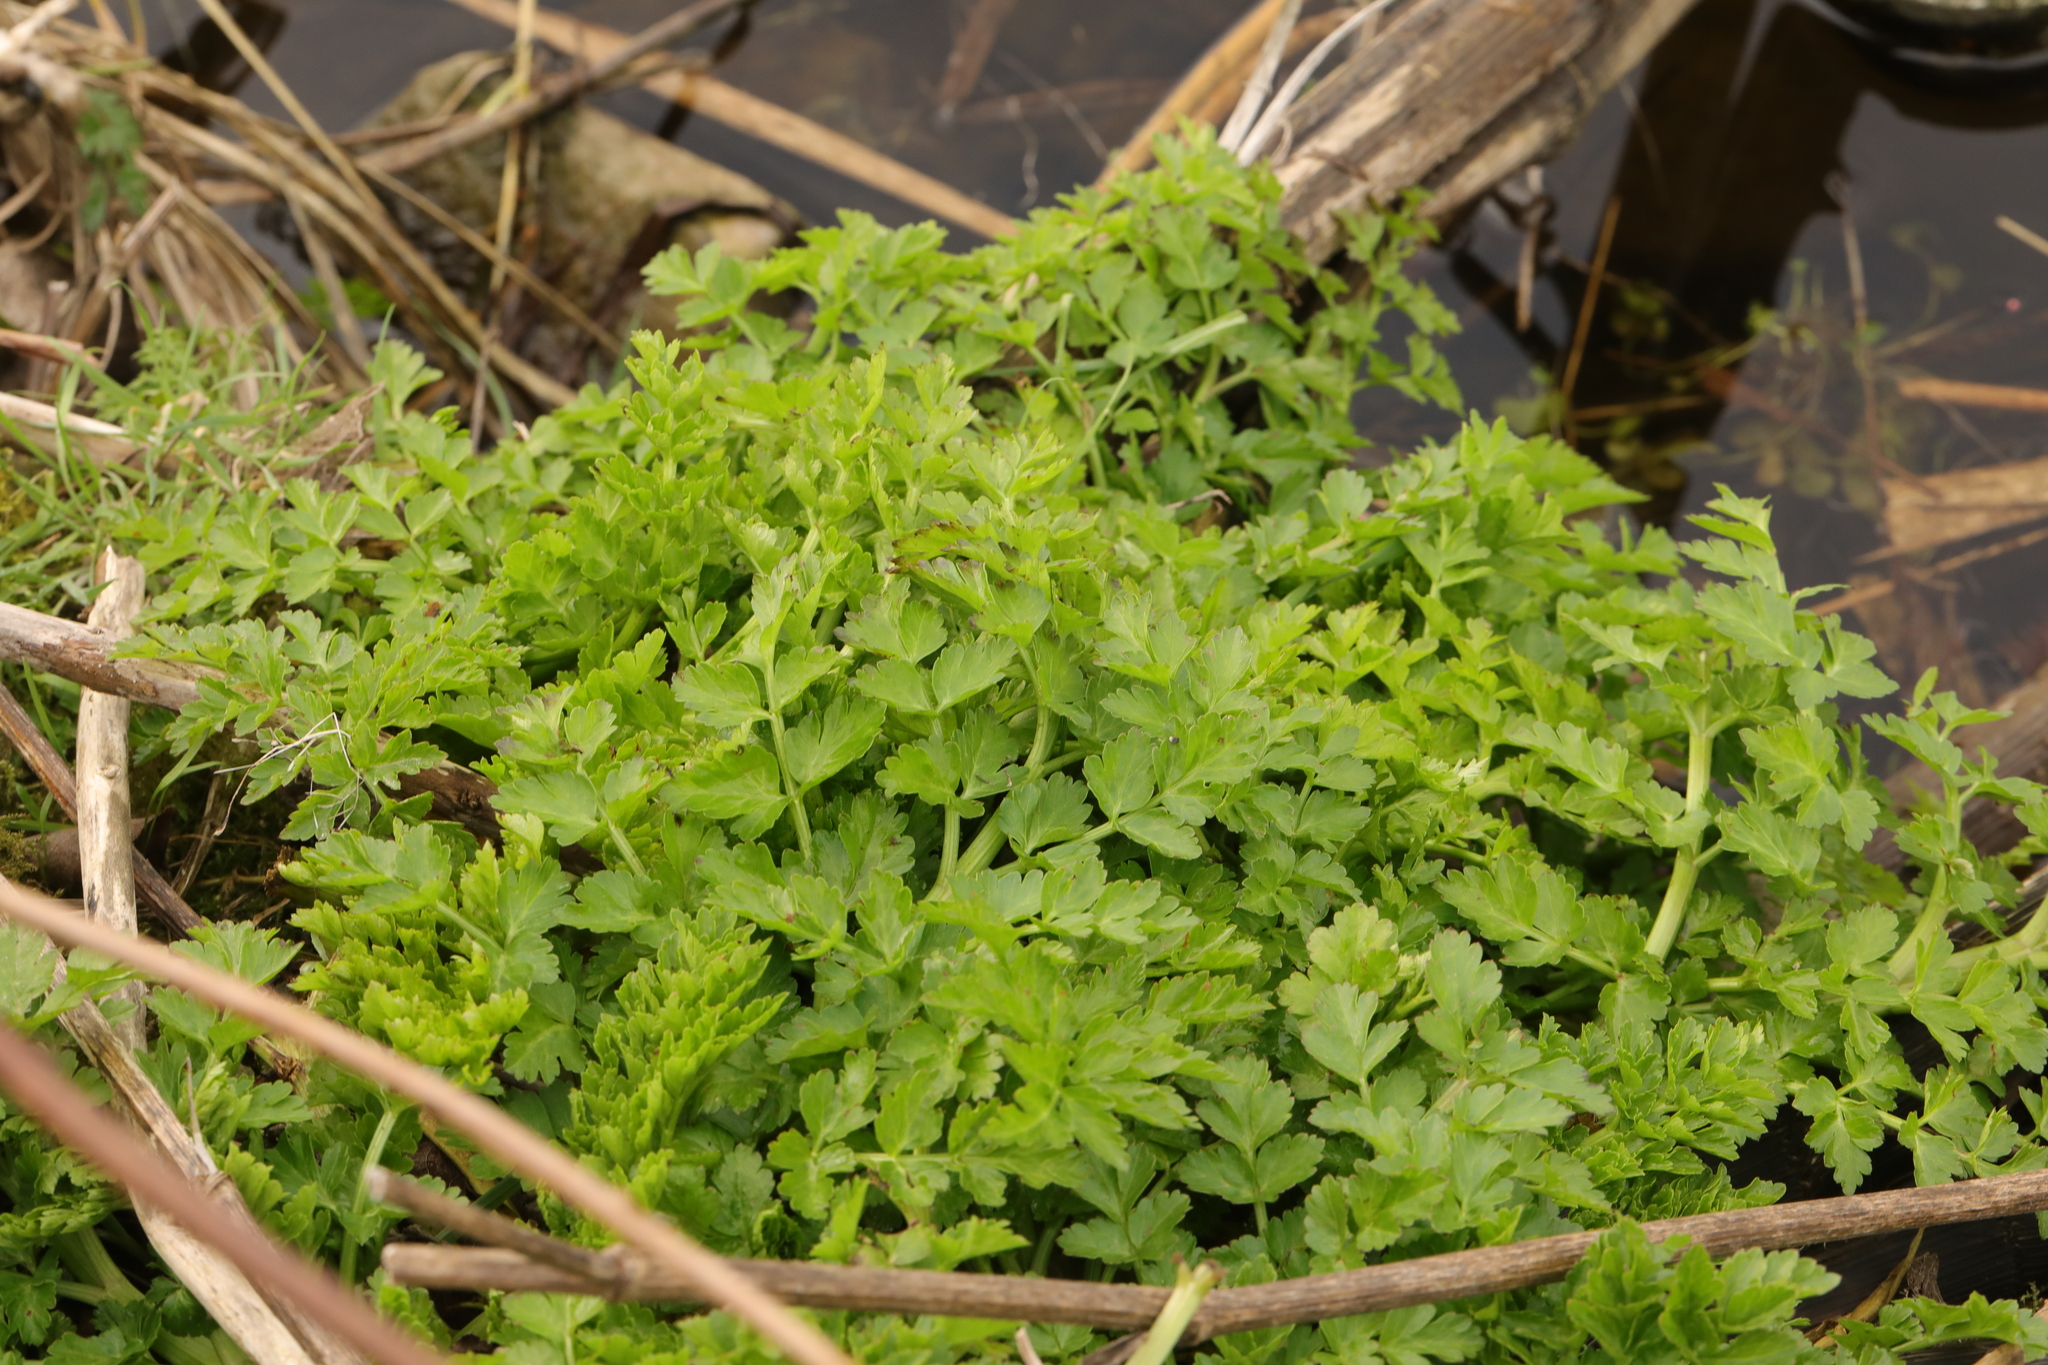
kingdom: Plantae
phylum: Tracheophyta
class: Magnoliopsida
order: Apiales
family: Apiaceae
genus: Oenanthe
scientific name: Oenanthe crocata
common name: Hemlock water-dropwort
